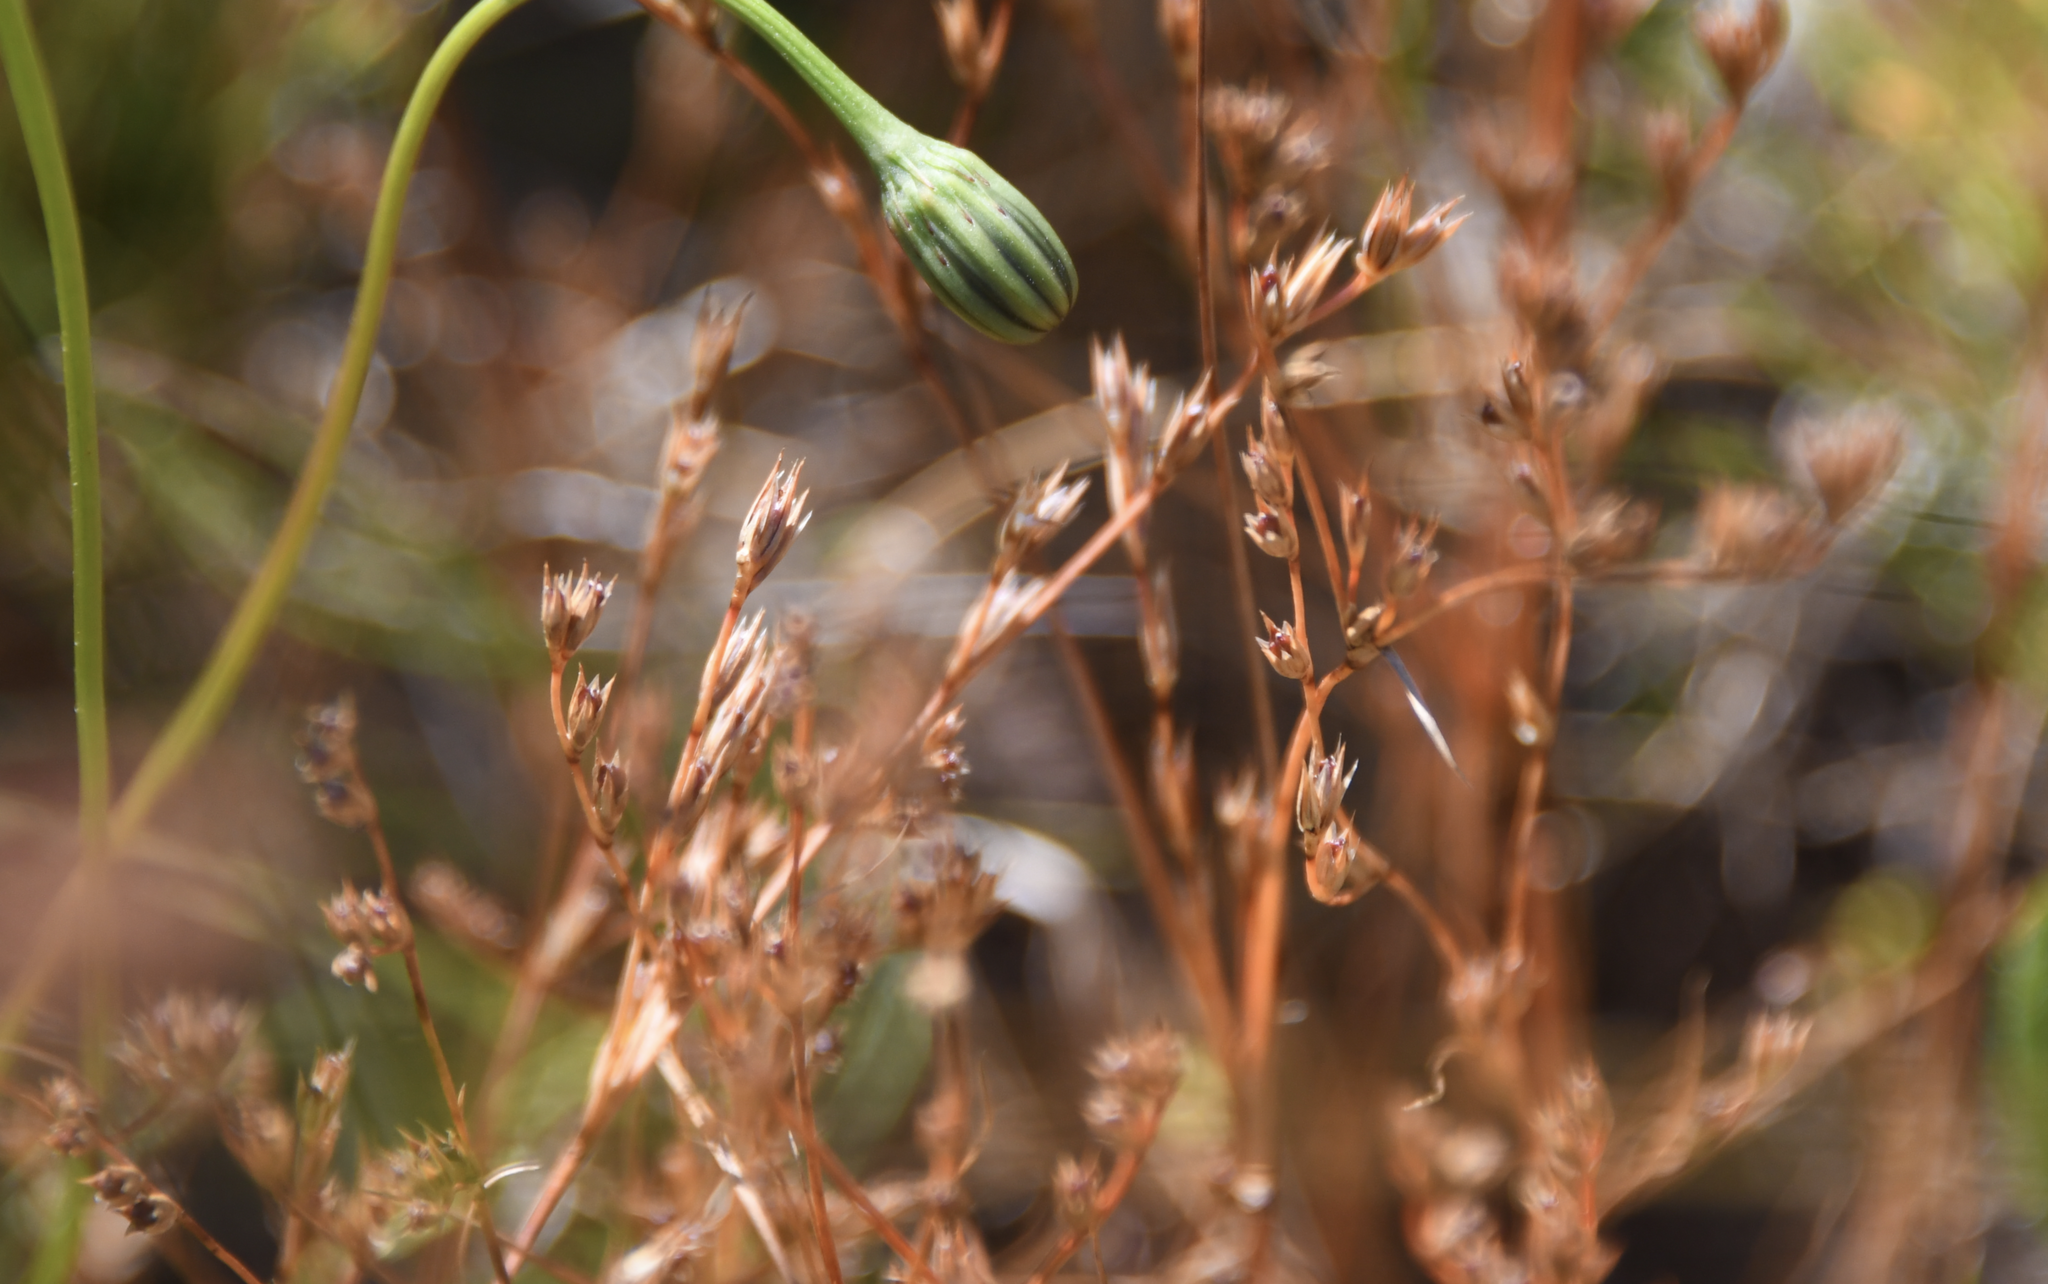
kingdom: Plantae
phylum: Tracheophyta
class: Liliopsida
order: Poales
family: Juncaceae
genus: Juncus
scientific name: Juncus bufonius
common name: Toad rush
